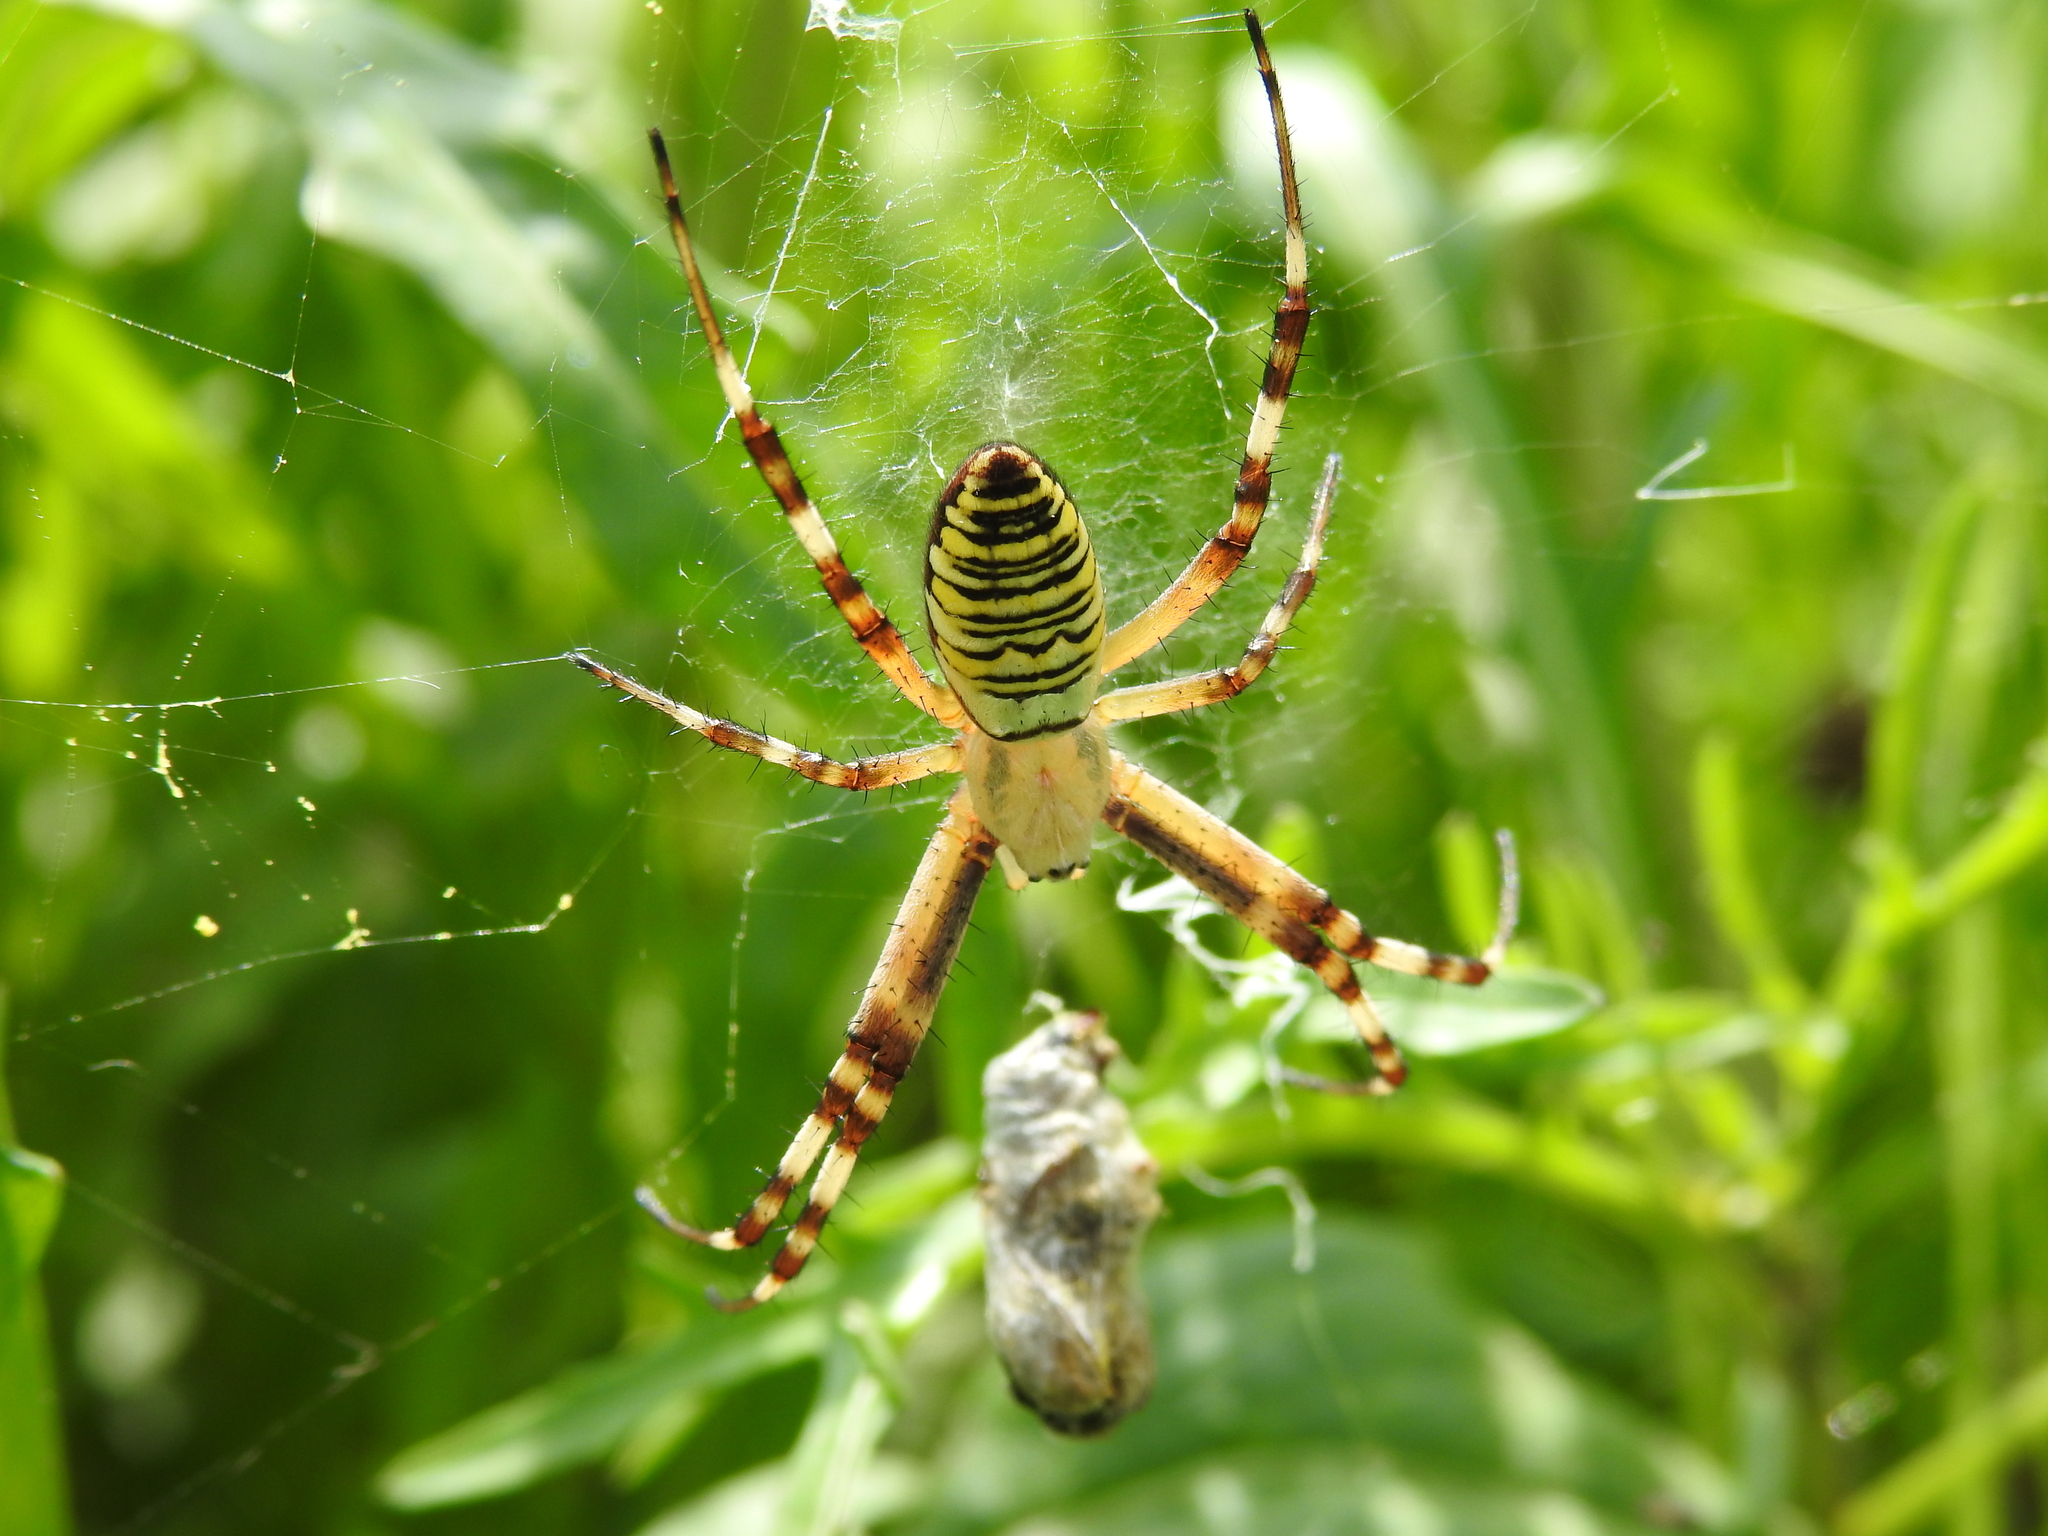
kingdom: Animalia
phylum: Arthropoda
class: Arachnida
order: Araneae
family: Araneidae
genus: Argiope
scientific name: Argiope bruennichi
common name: Wasp spider
